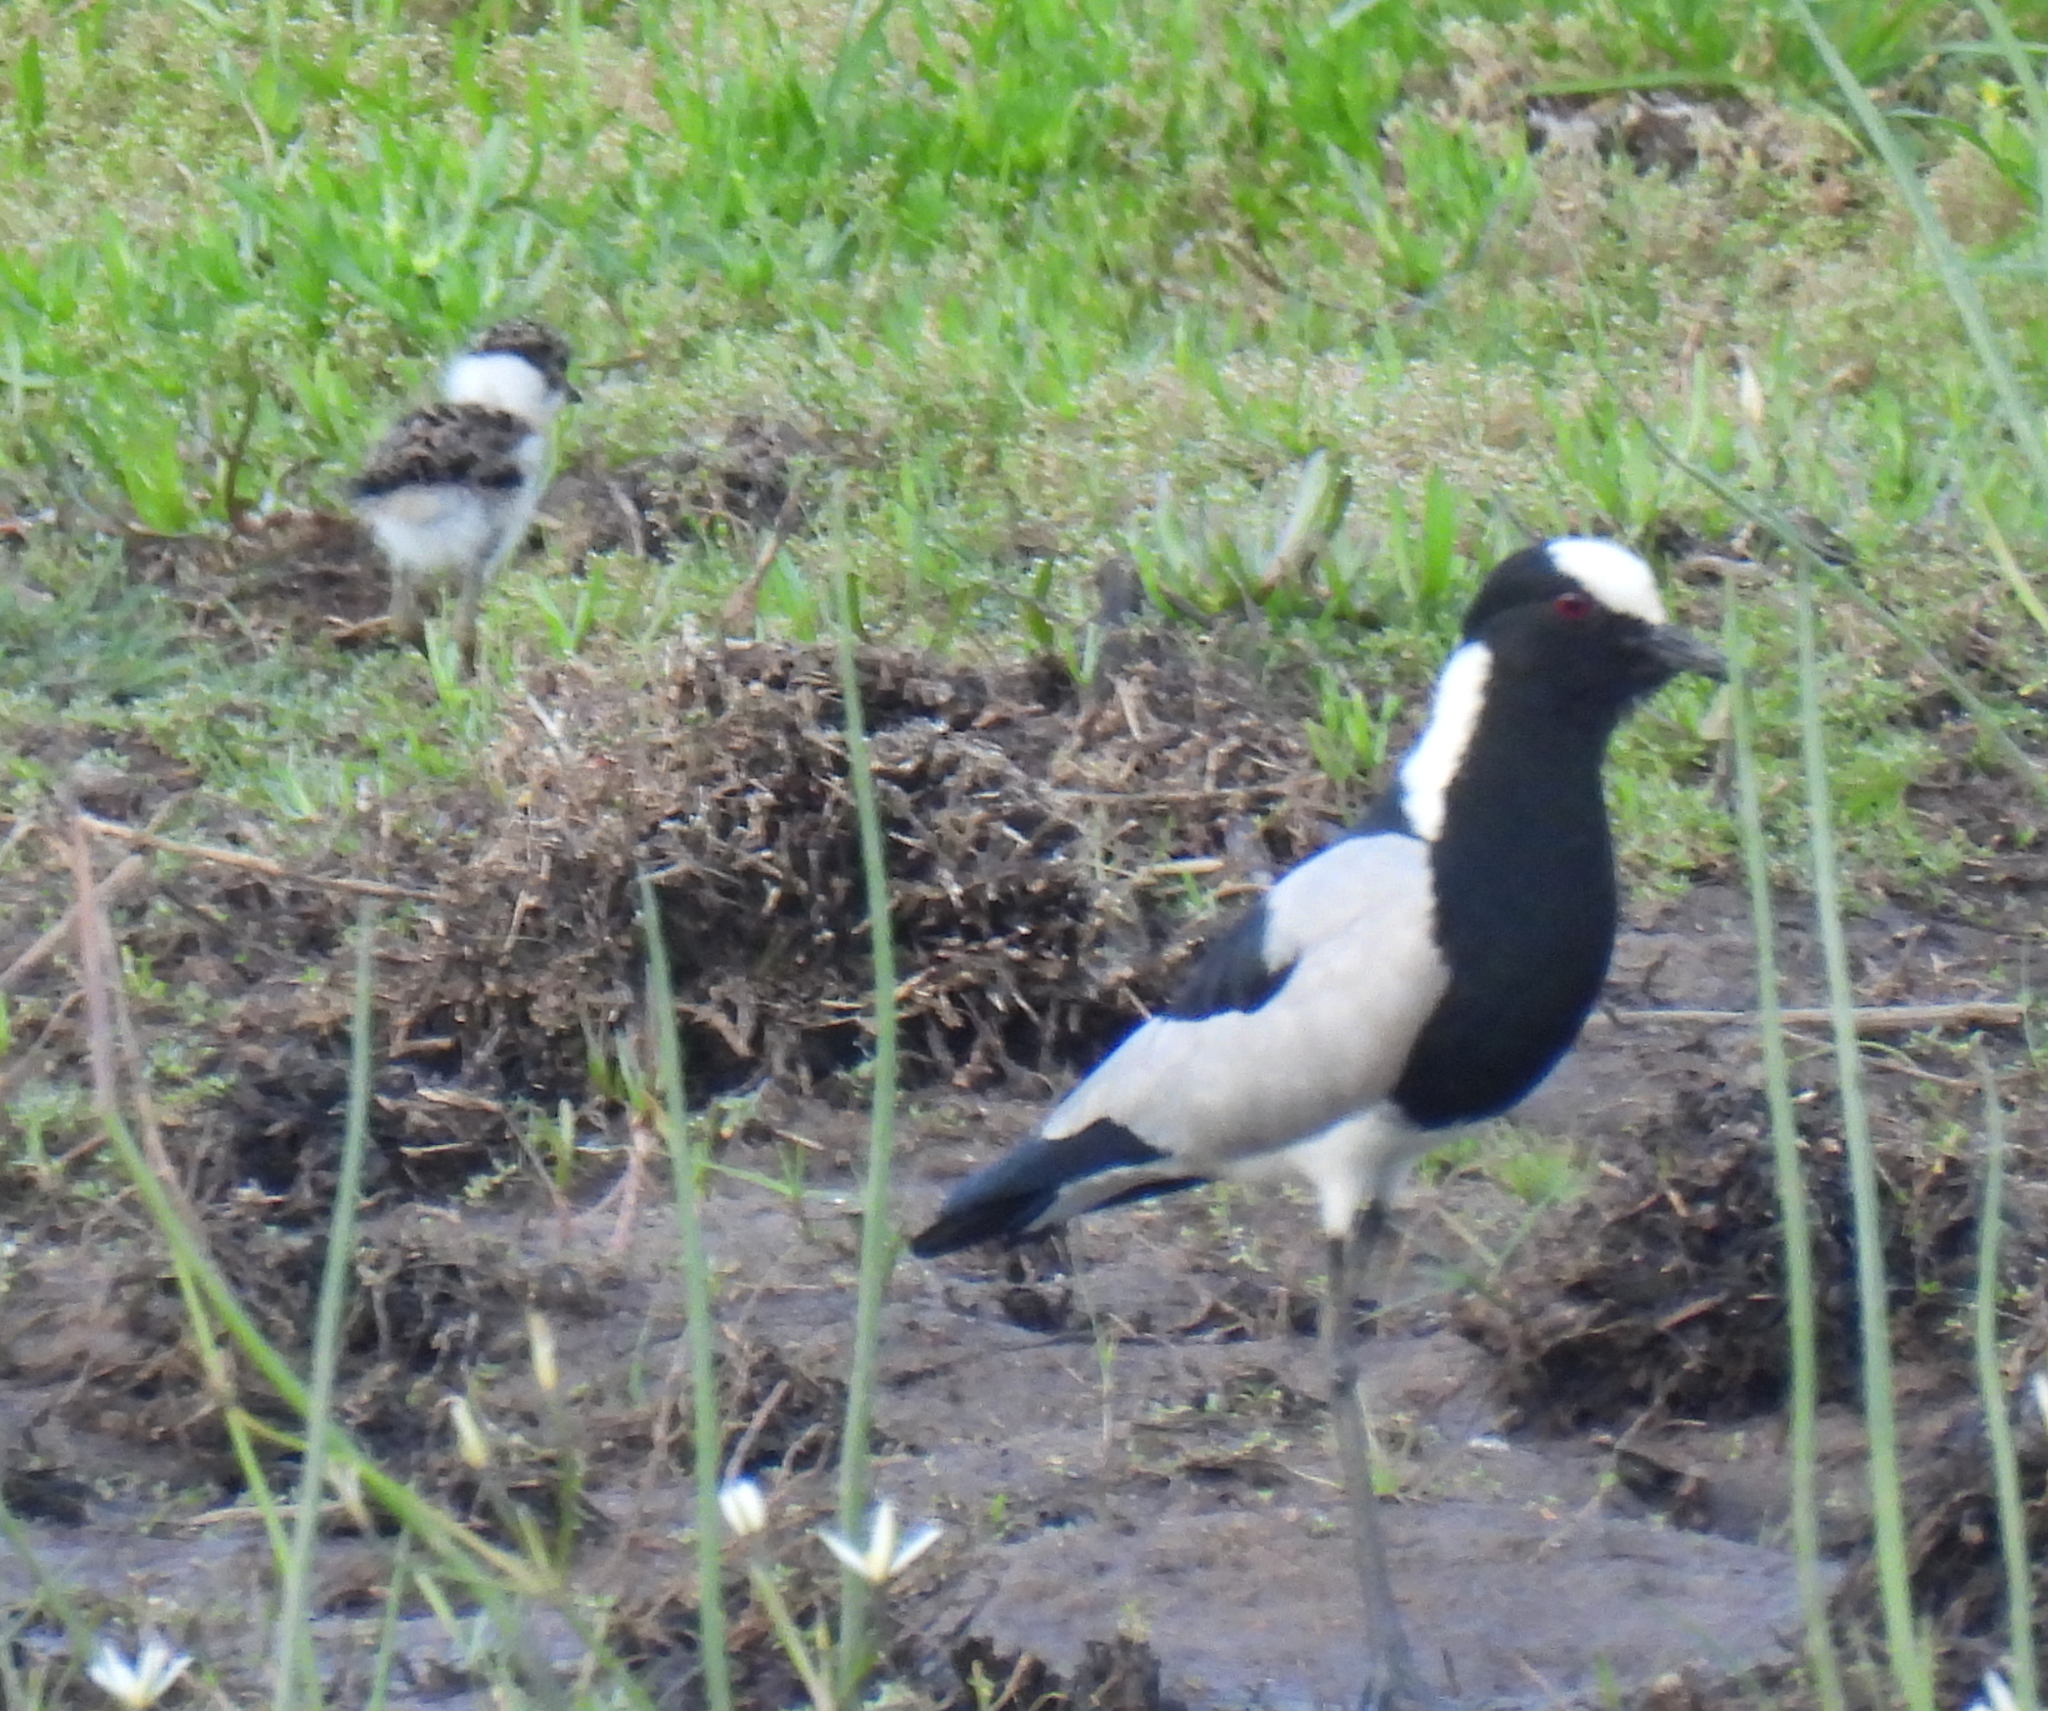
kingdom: Animalia
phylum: Chordata
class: Aves
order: Charadriiformes
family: Charadriidae
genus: Vanellus
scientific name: Vanellus armatus
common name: Blacksmith lapwing
